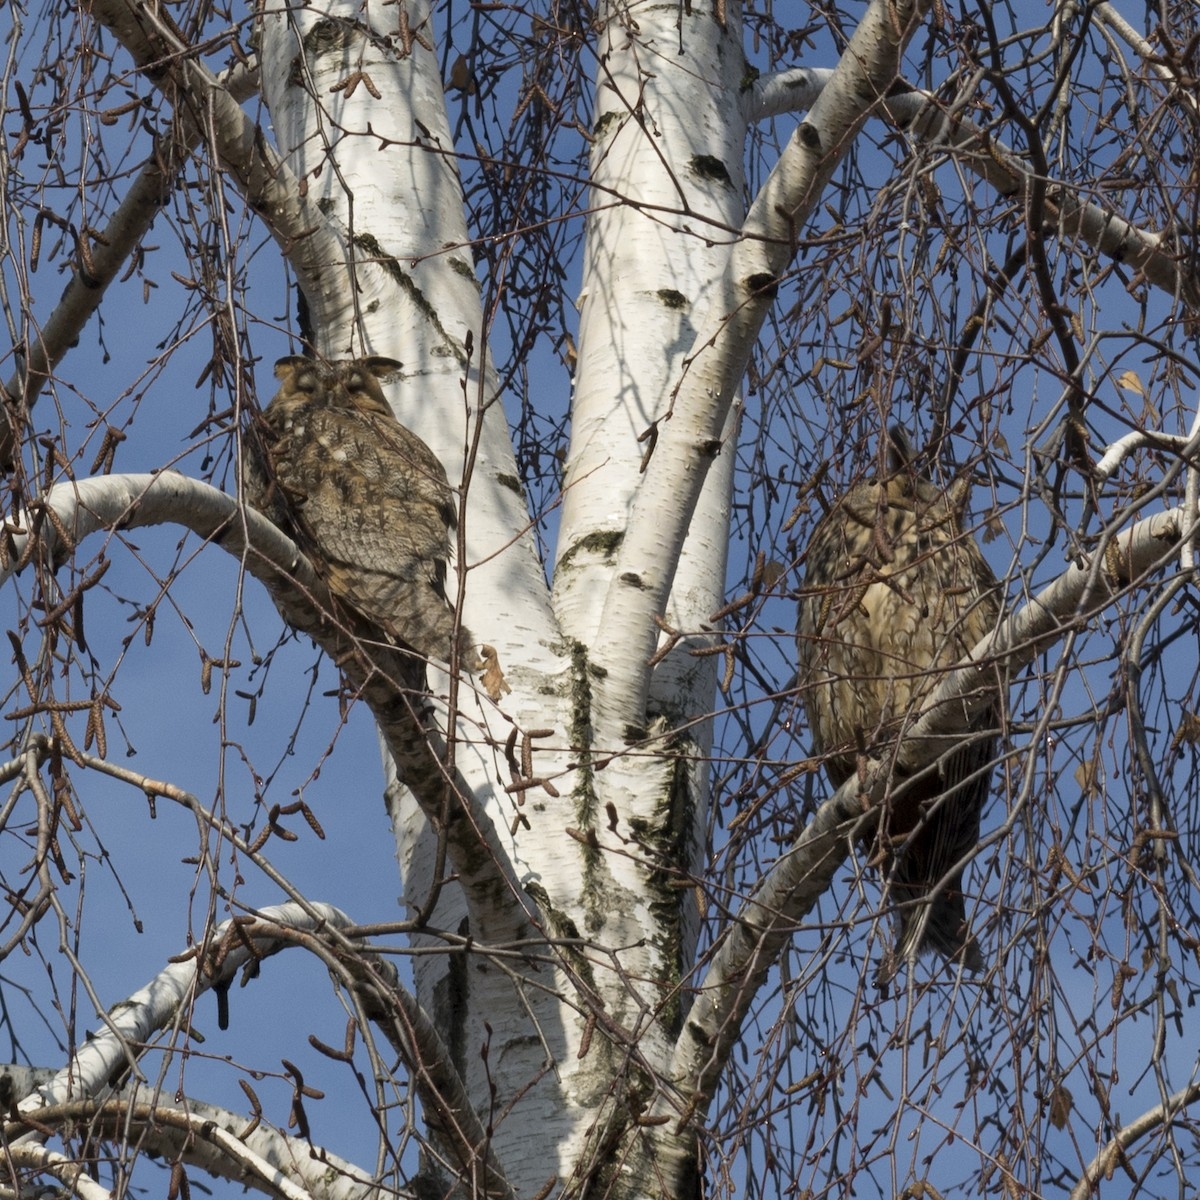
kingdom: Animalia
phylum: Chordata
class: Aves
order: Strigiformes
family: Strigidae
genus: Asio
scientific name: Asio otus
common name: Long-eared owl
